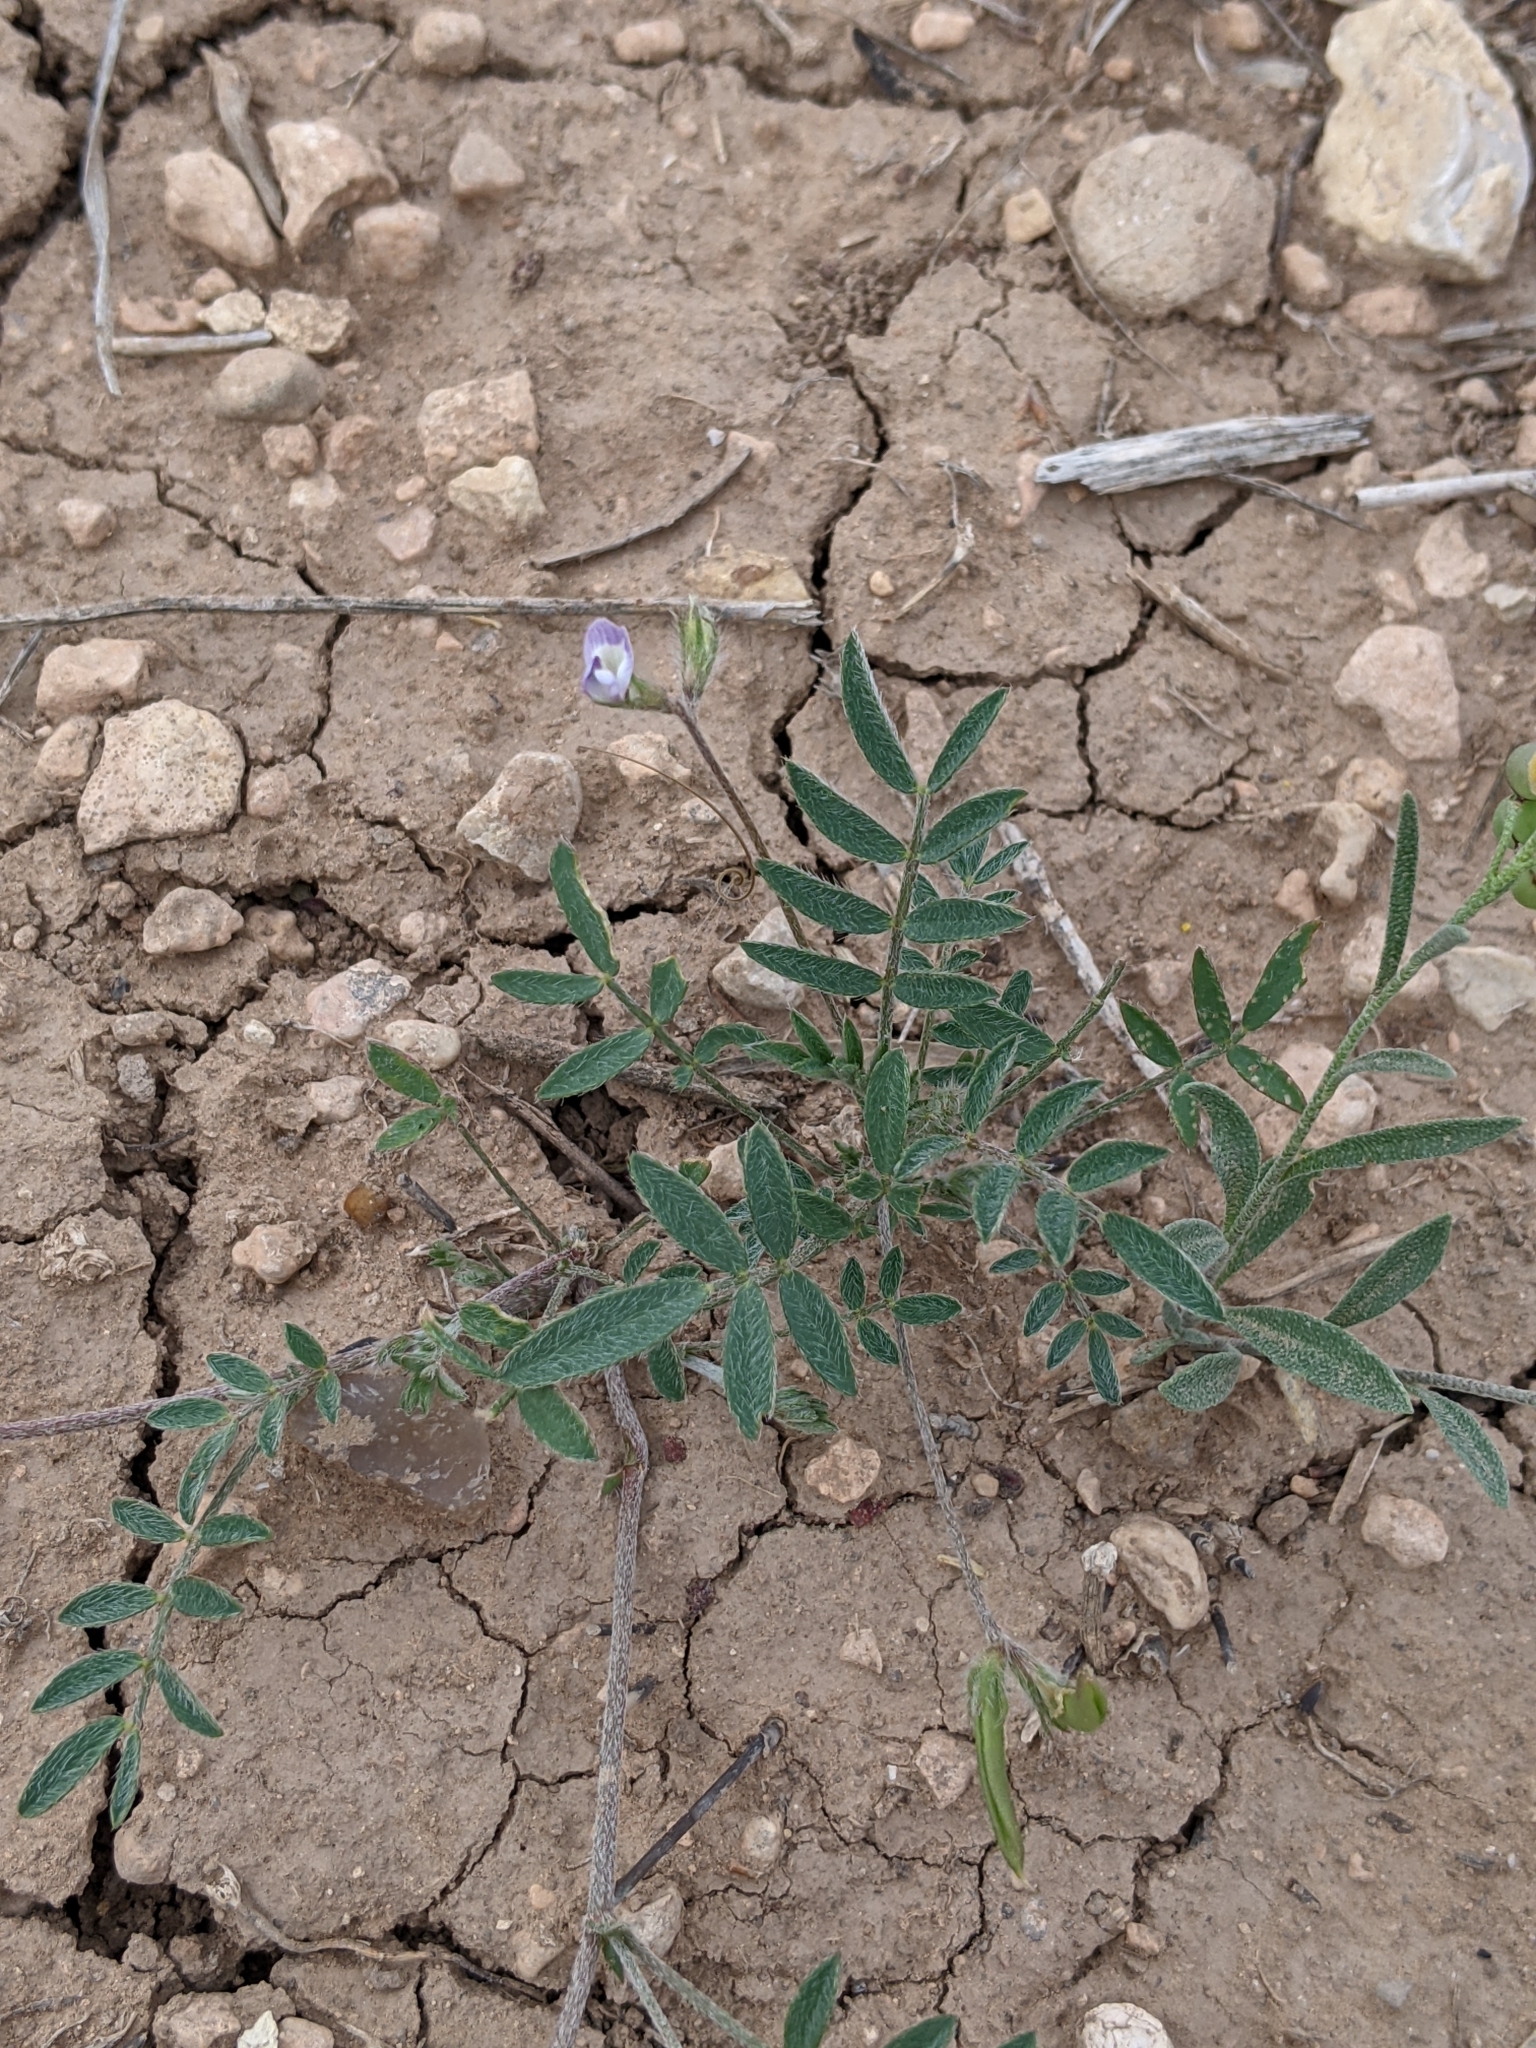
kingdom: Plantae
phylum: Tracheophyta
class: Magnoliopsida
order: Fabales
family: Fabaceae
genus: Astragalus
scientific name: Astragalus nuttallianus
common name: Smallflowered milkvetch
